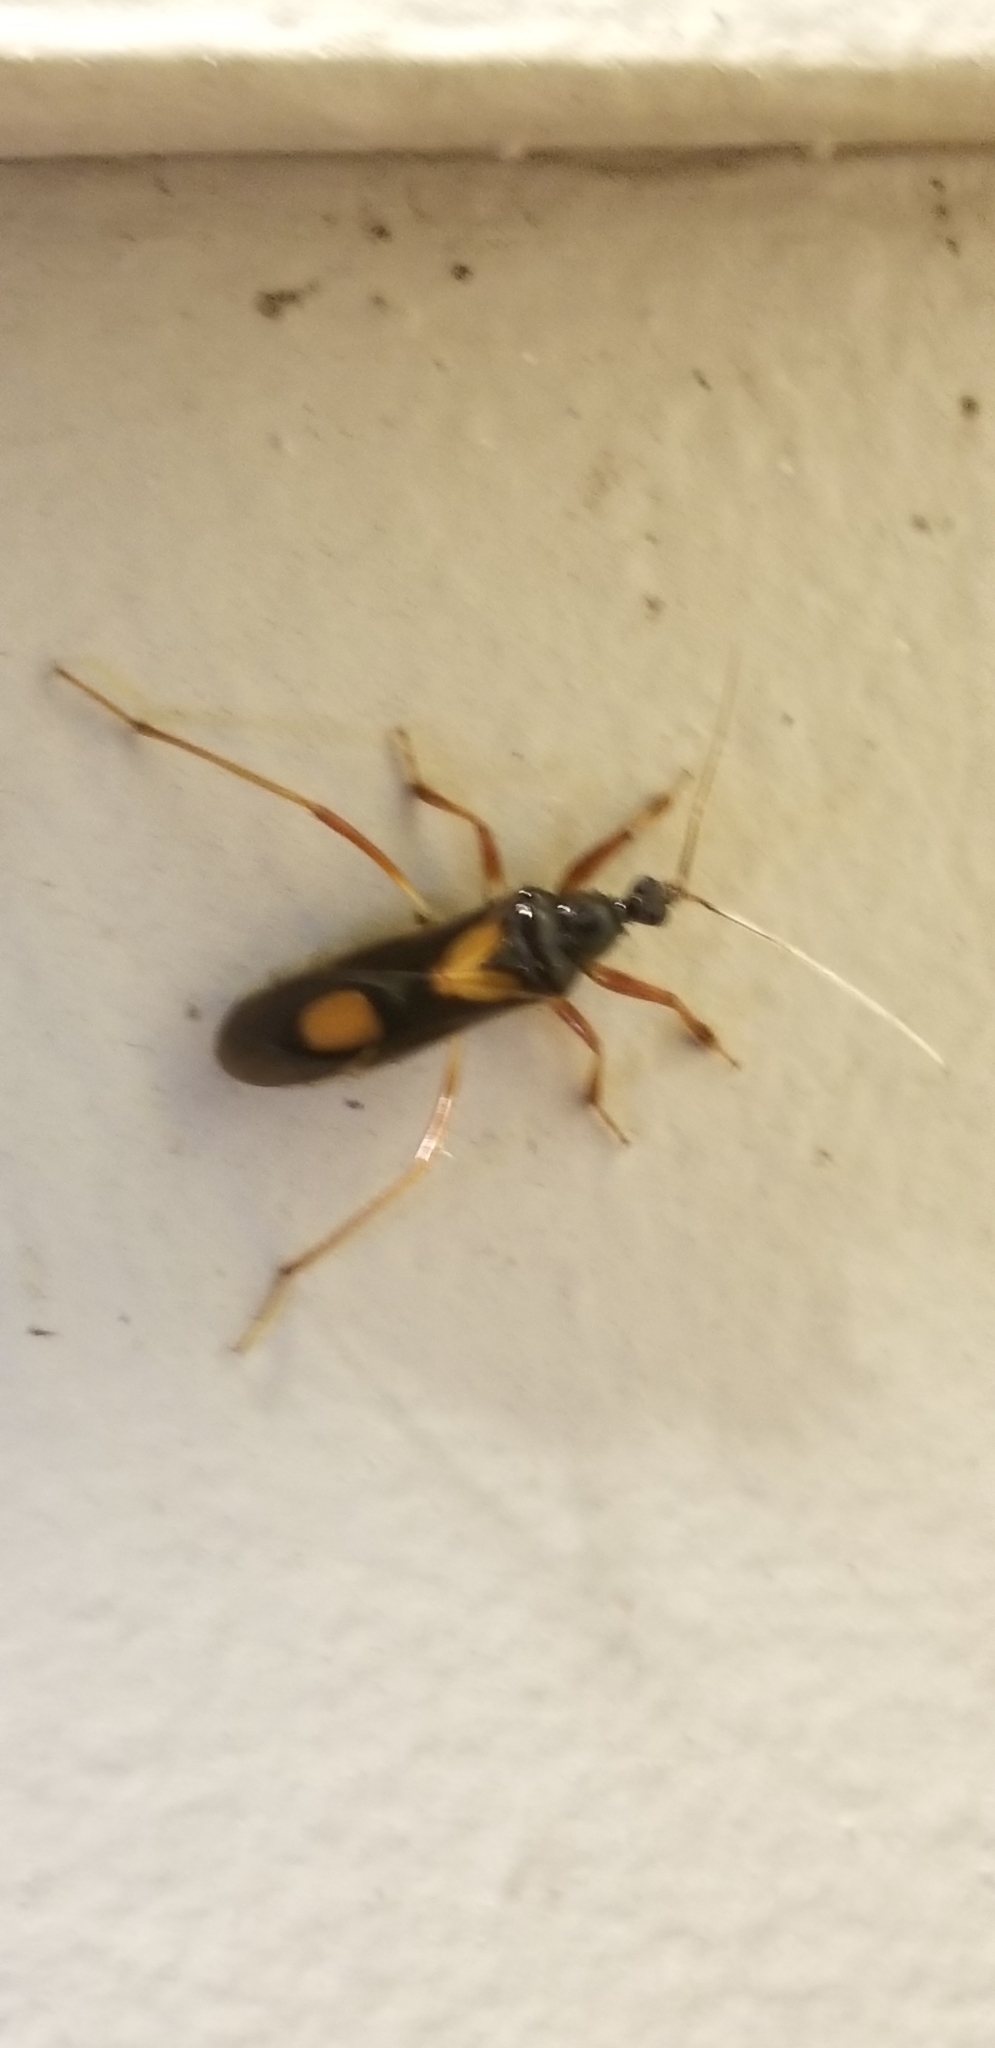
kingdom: Animalia
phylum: Arthropoda
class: Insecta
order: Hemiptera
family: Reduviidae
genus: Rasahus
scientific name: Rasahus hamatus
